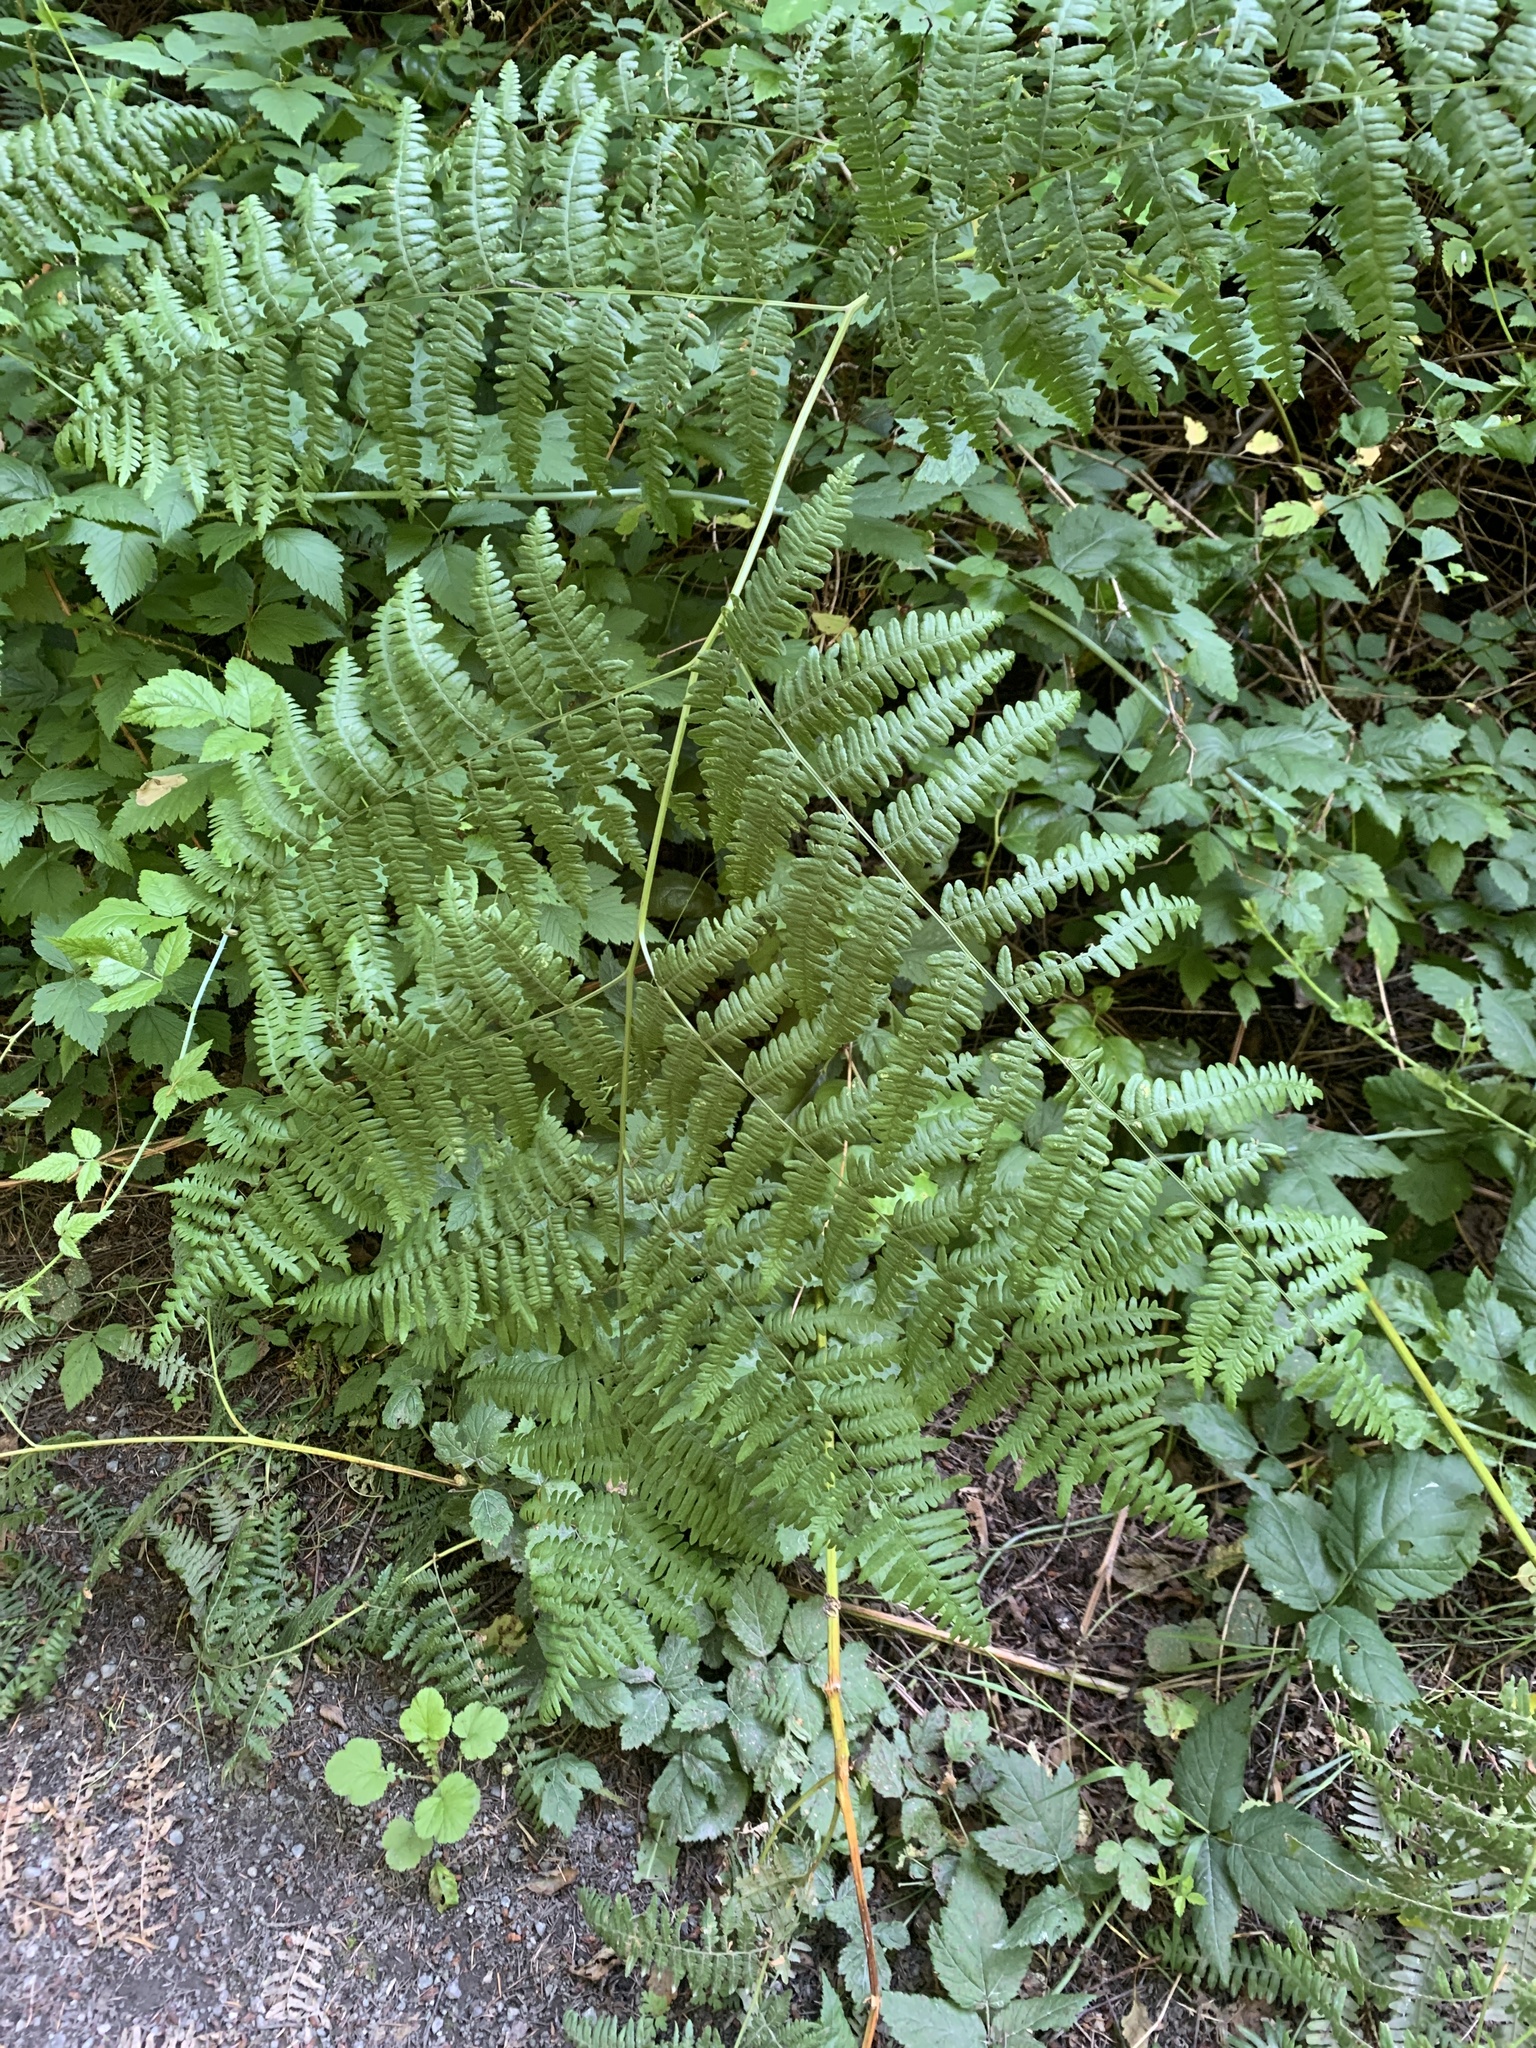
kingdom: Plantae
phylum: Tracheophyta
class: Polypodiopsida
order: Polypodiales
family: Dennstaedtiaceae
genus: Pteridium
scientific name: Pteridium aquilinum
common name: Bracken
